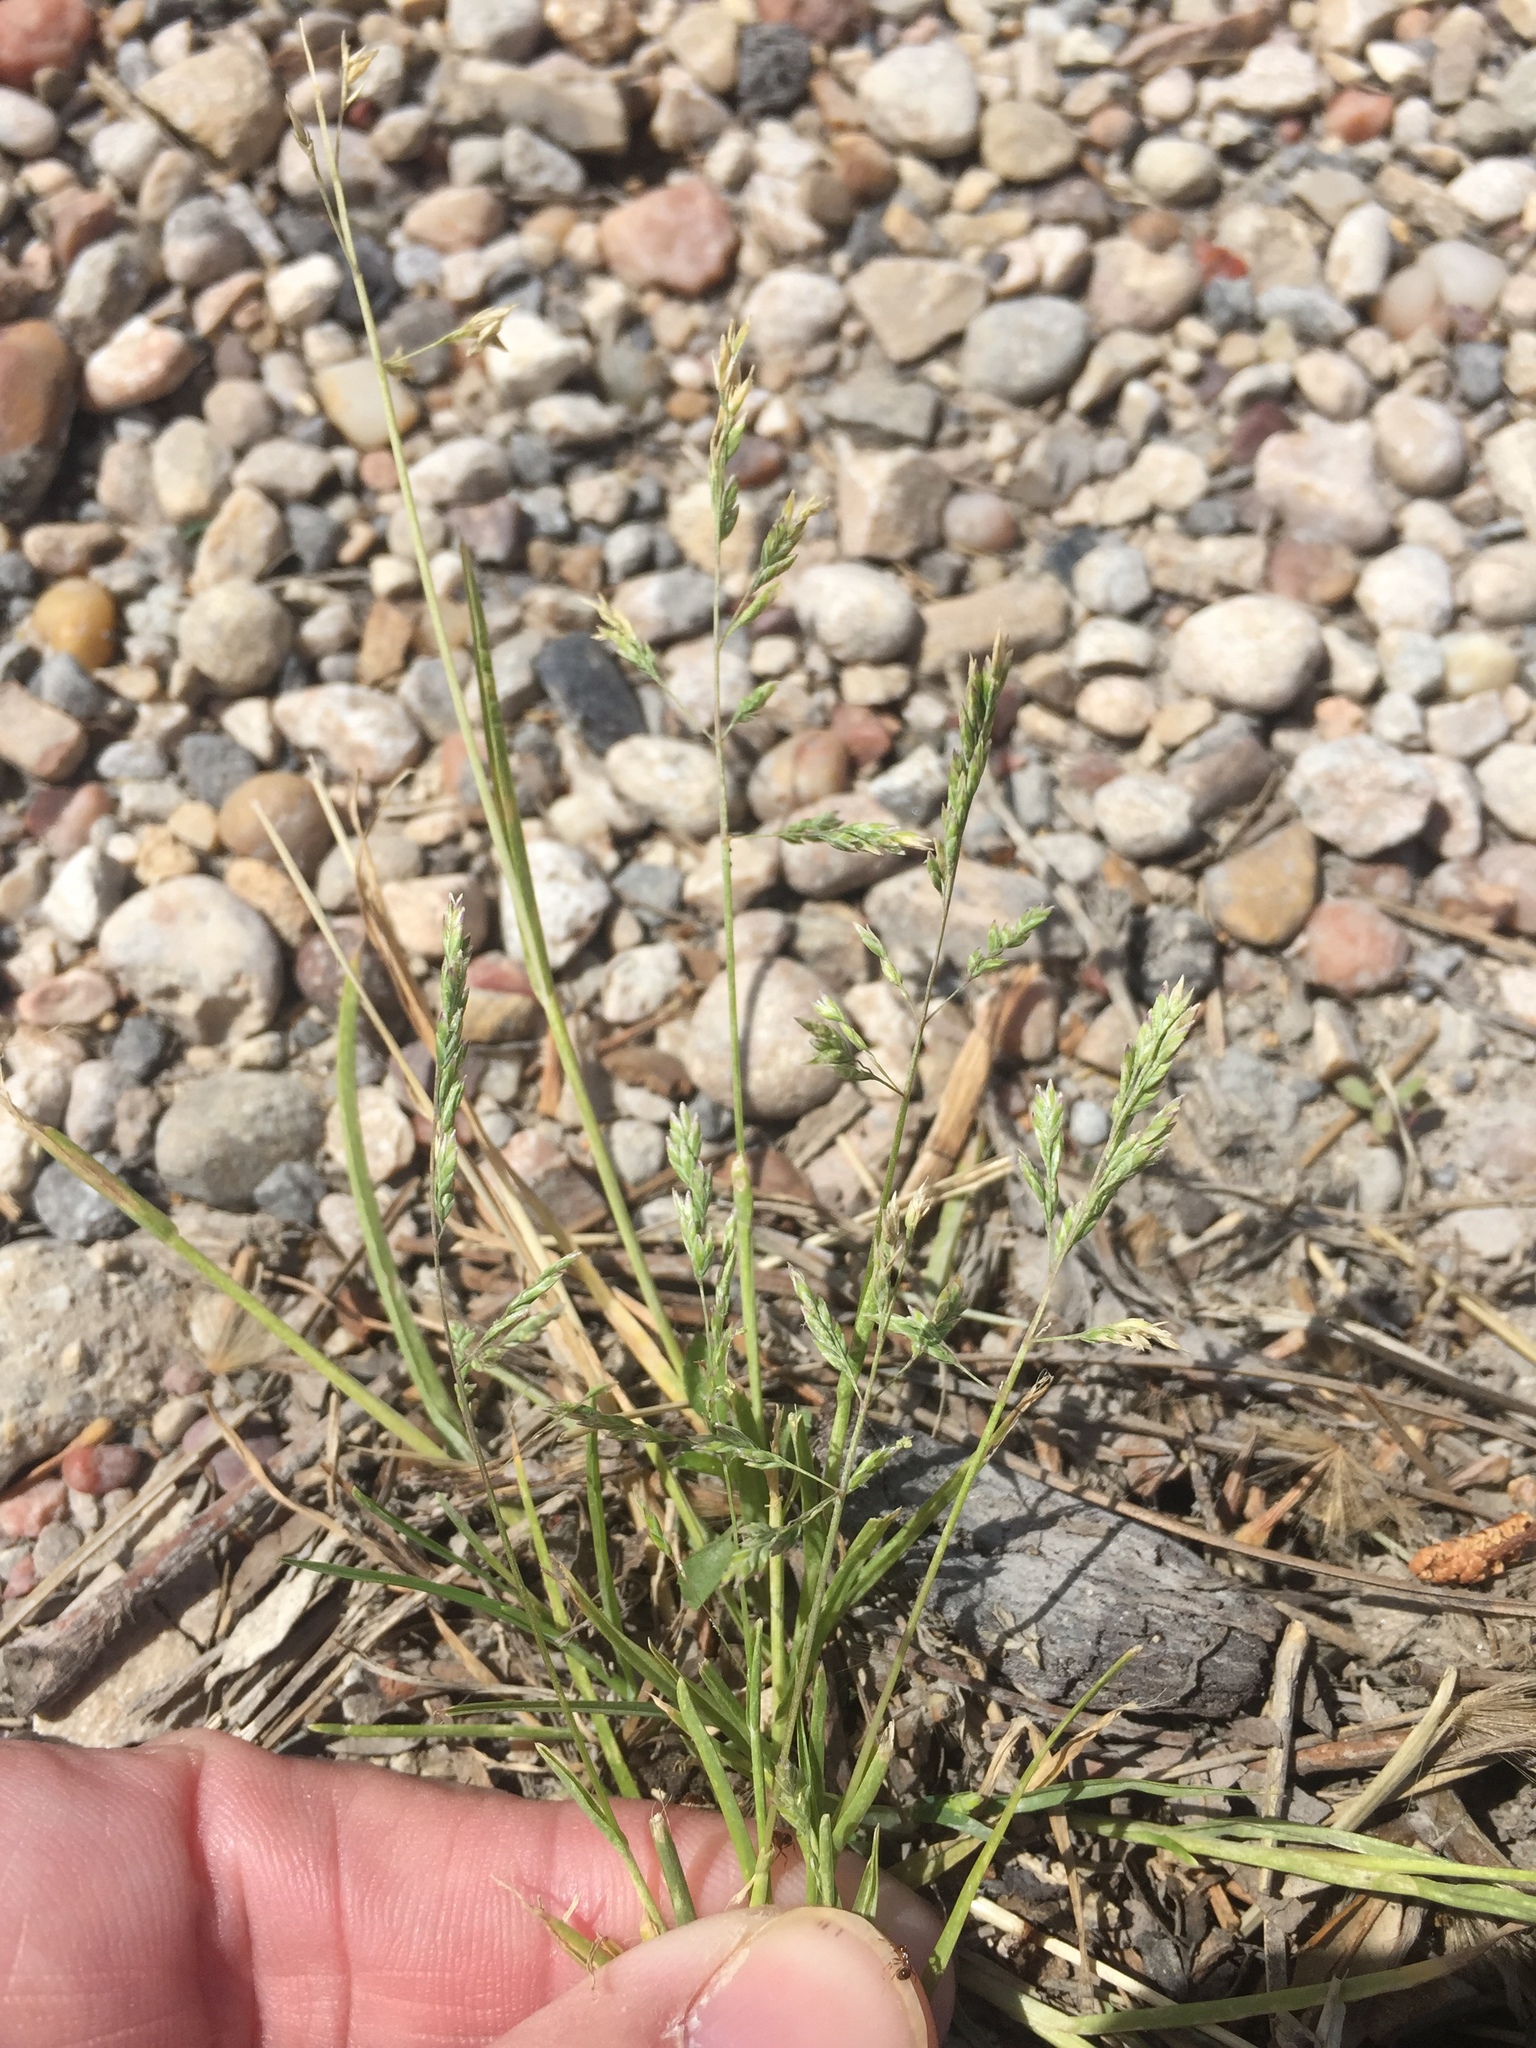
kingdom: Plantae
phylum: Tracheophyta
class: Liliopsida
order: Poales
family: Poaceae
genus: Poa
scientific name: Poa annua
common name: Annual bluegrass
